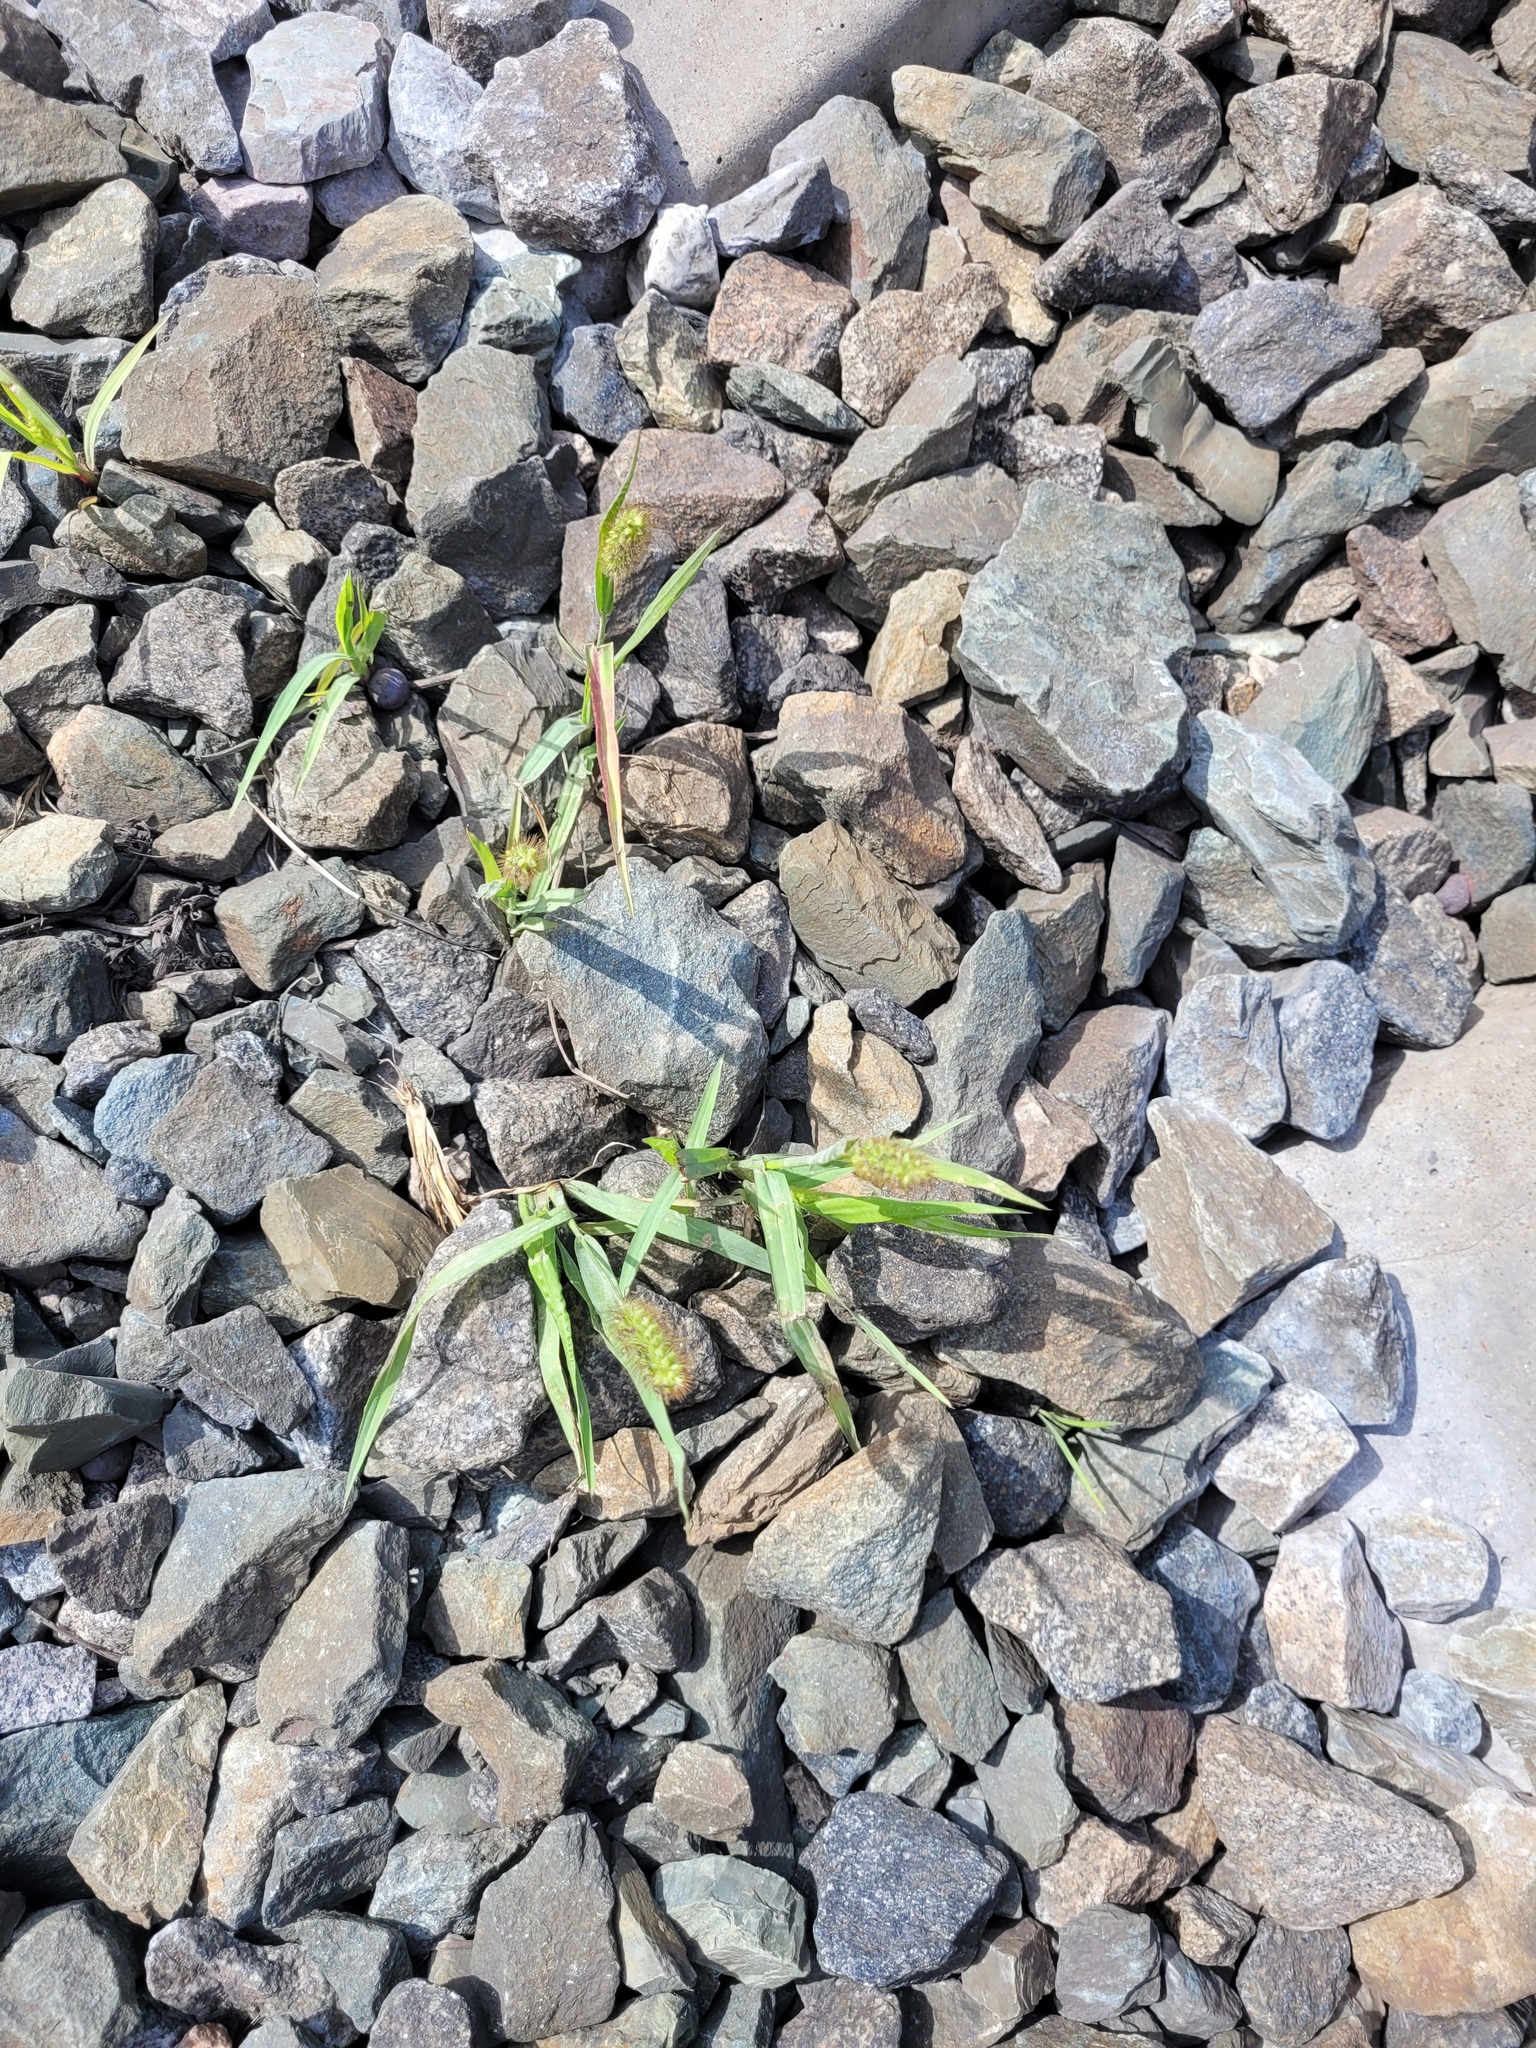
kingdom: Plantae
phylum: Tracheophyta
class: Liliopsida
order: Poales
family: Poaceae
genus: Setaria
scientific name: Setaria pumila
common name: Yellow bristle-grass
